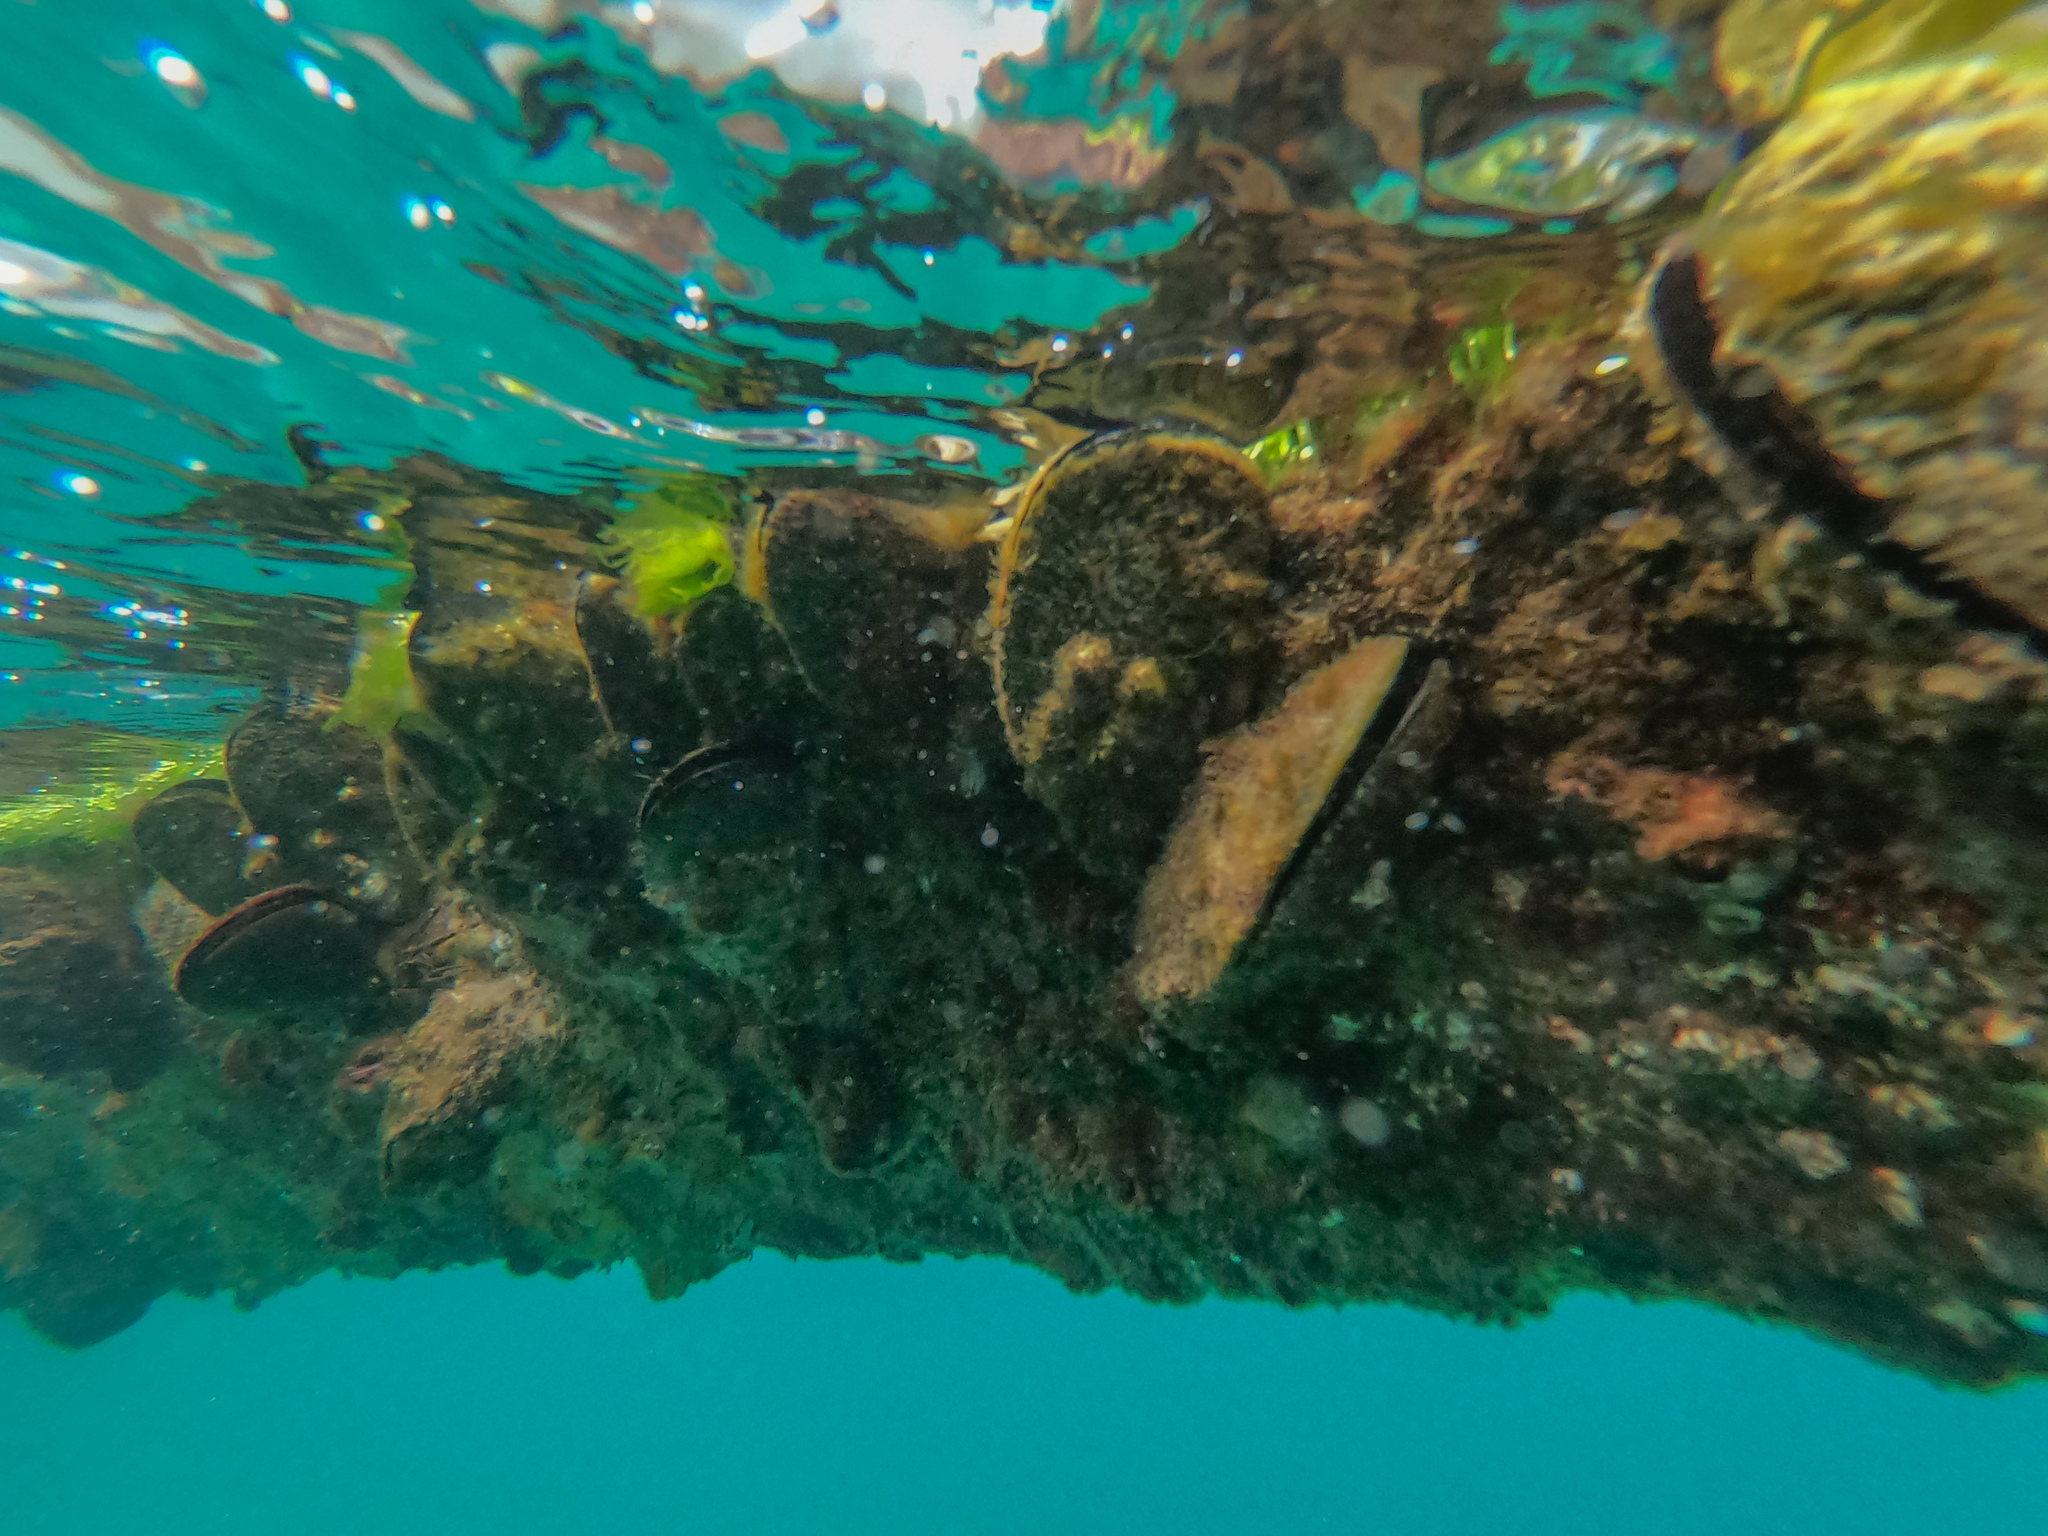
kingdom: Animalia
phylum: Mollusca
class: Bivalvia
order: Mytilida
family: Mytilidae
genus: Perna
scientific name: Perna canaliculus
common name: New zealand greenshelltm
